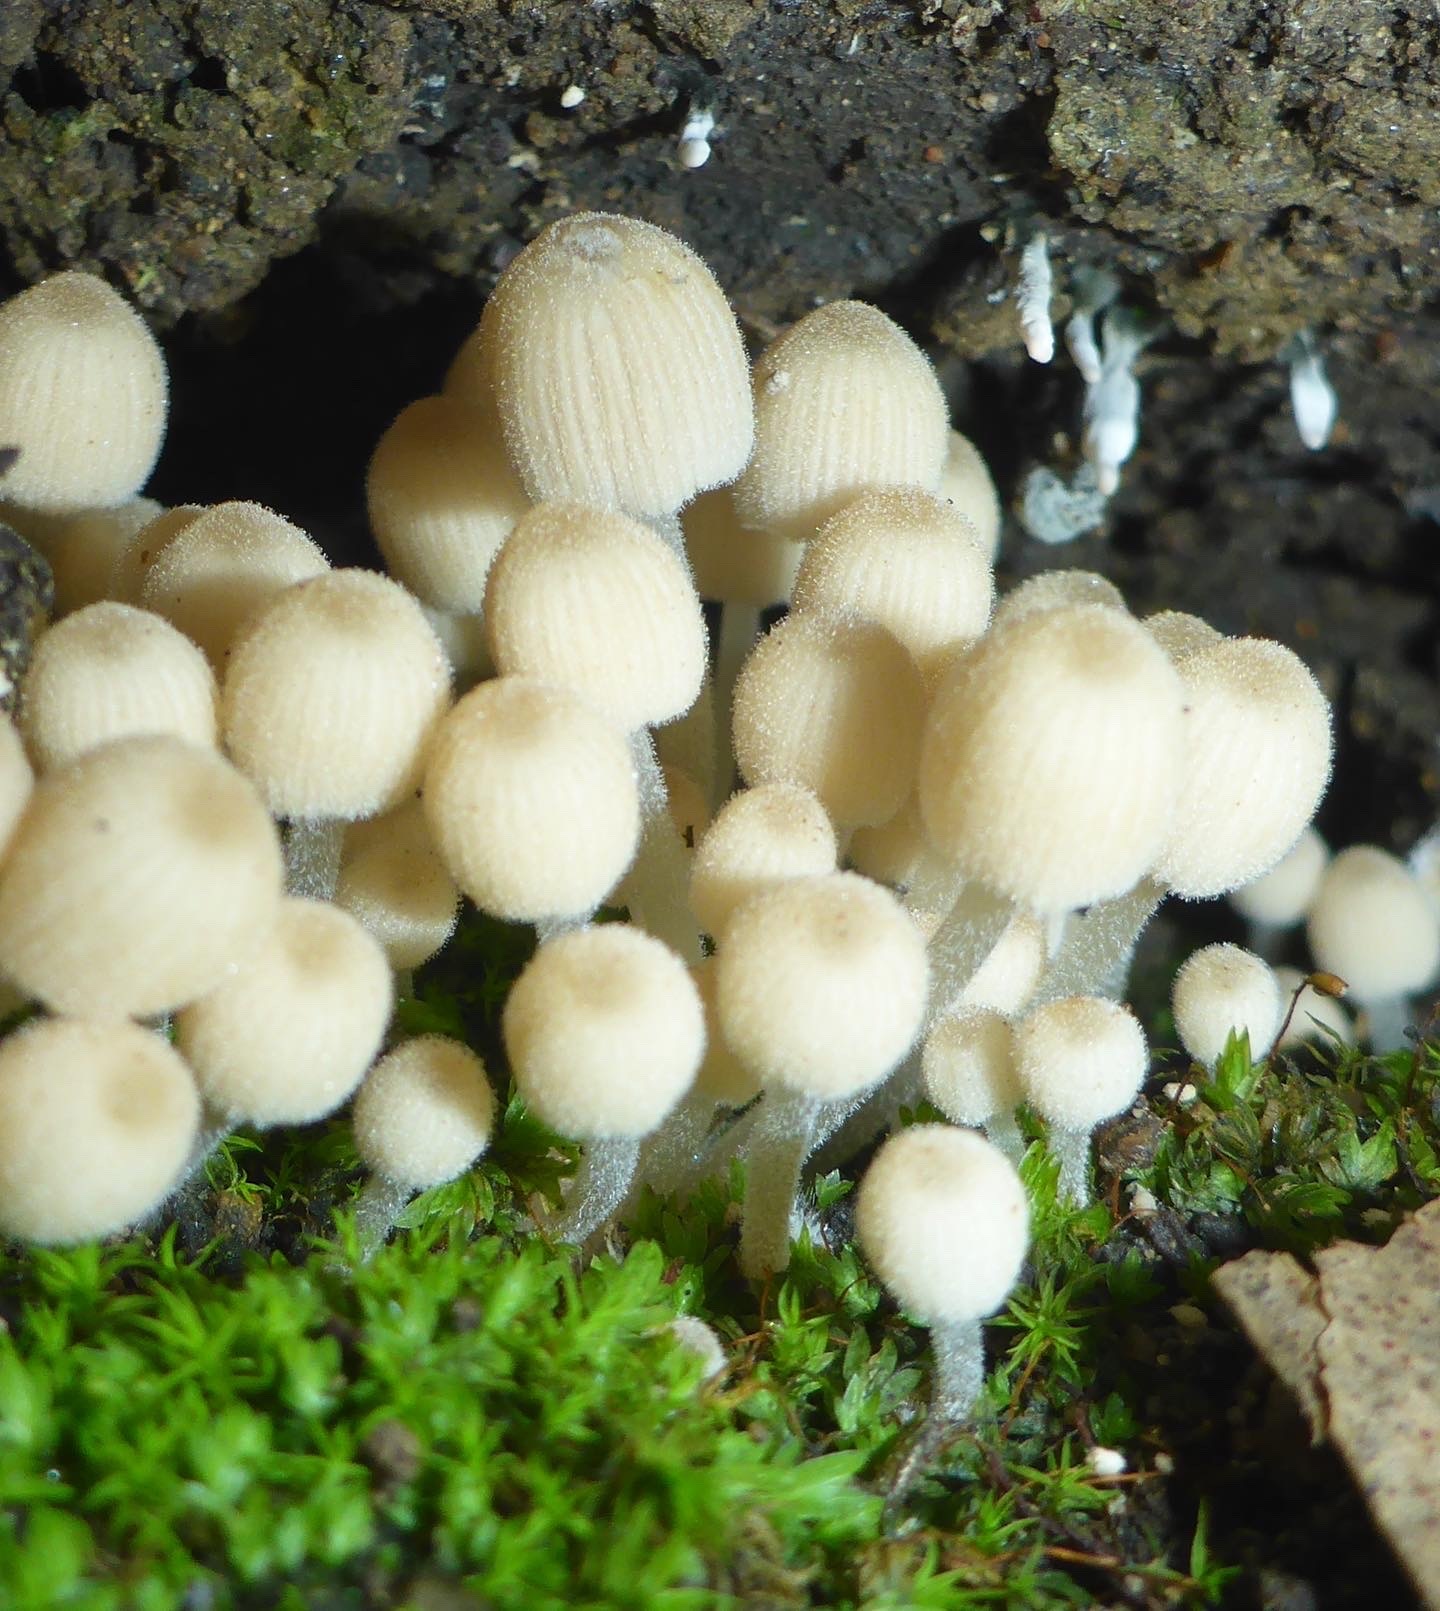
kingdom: Fungi
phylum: Basidiomycota
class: Agaricomycetes
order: Agaricales
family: Psathyrellaceae
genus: Coprinellus
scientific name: Coprinellus disseminatus
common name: Fairies' bonnets
